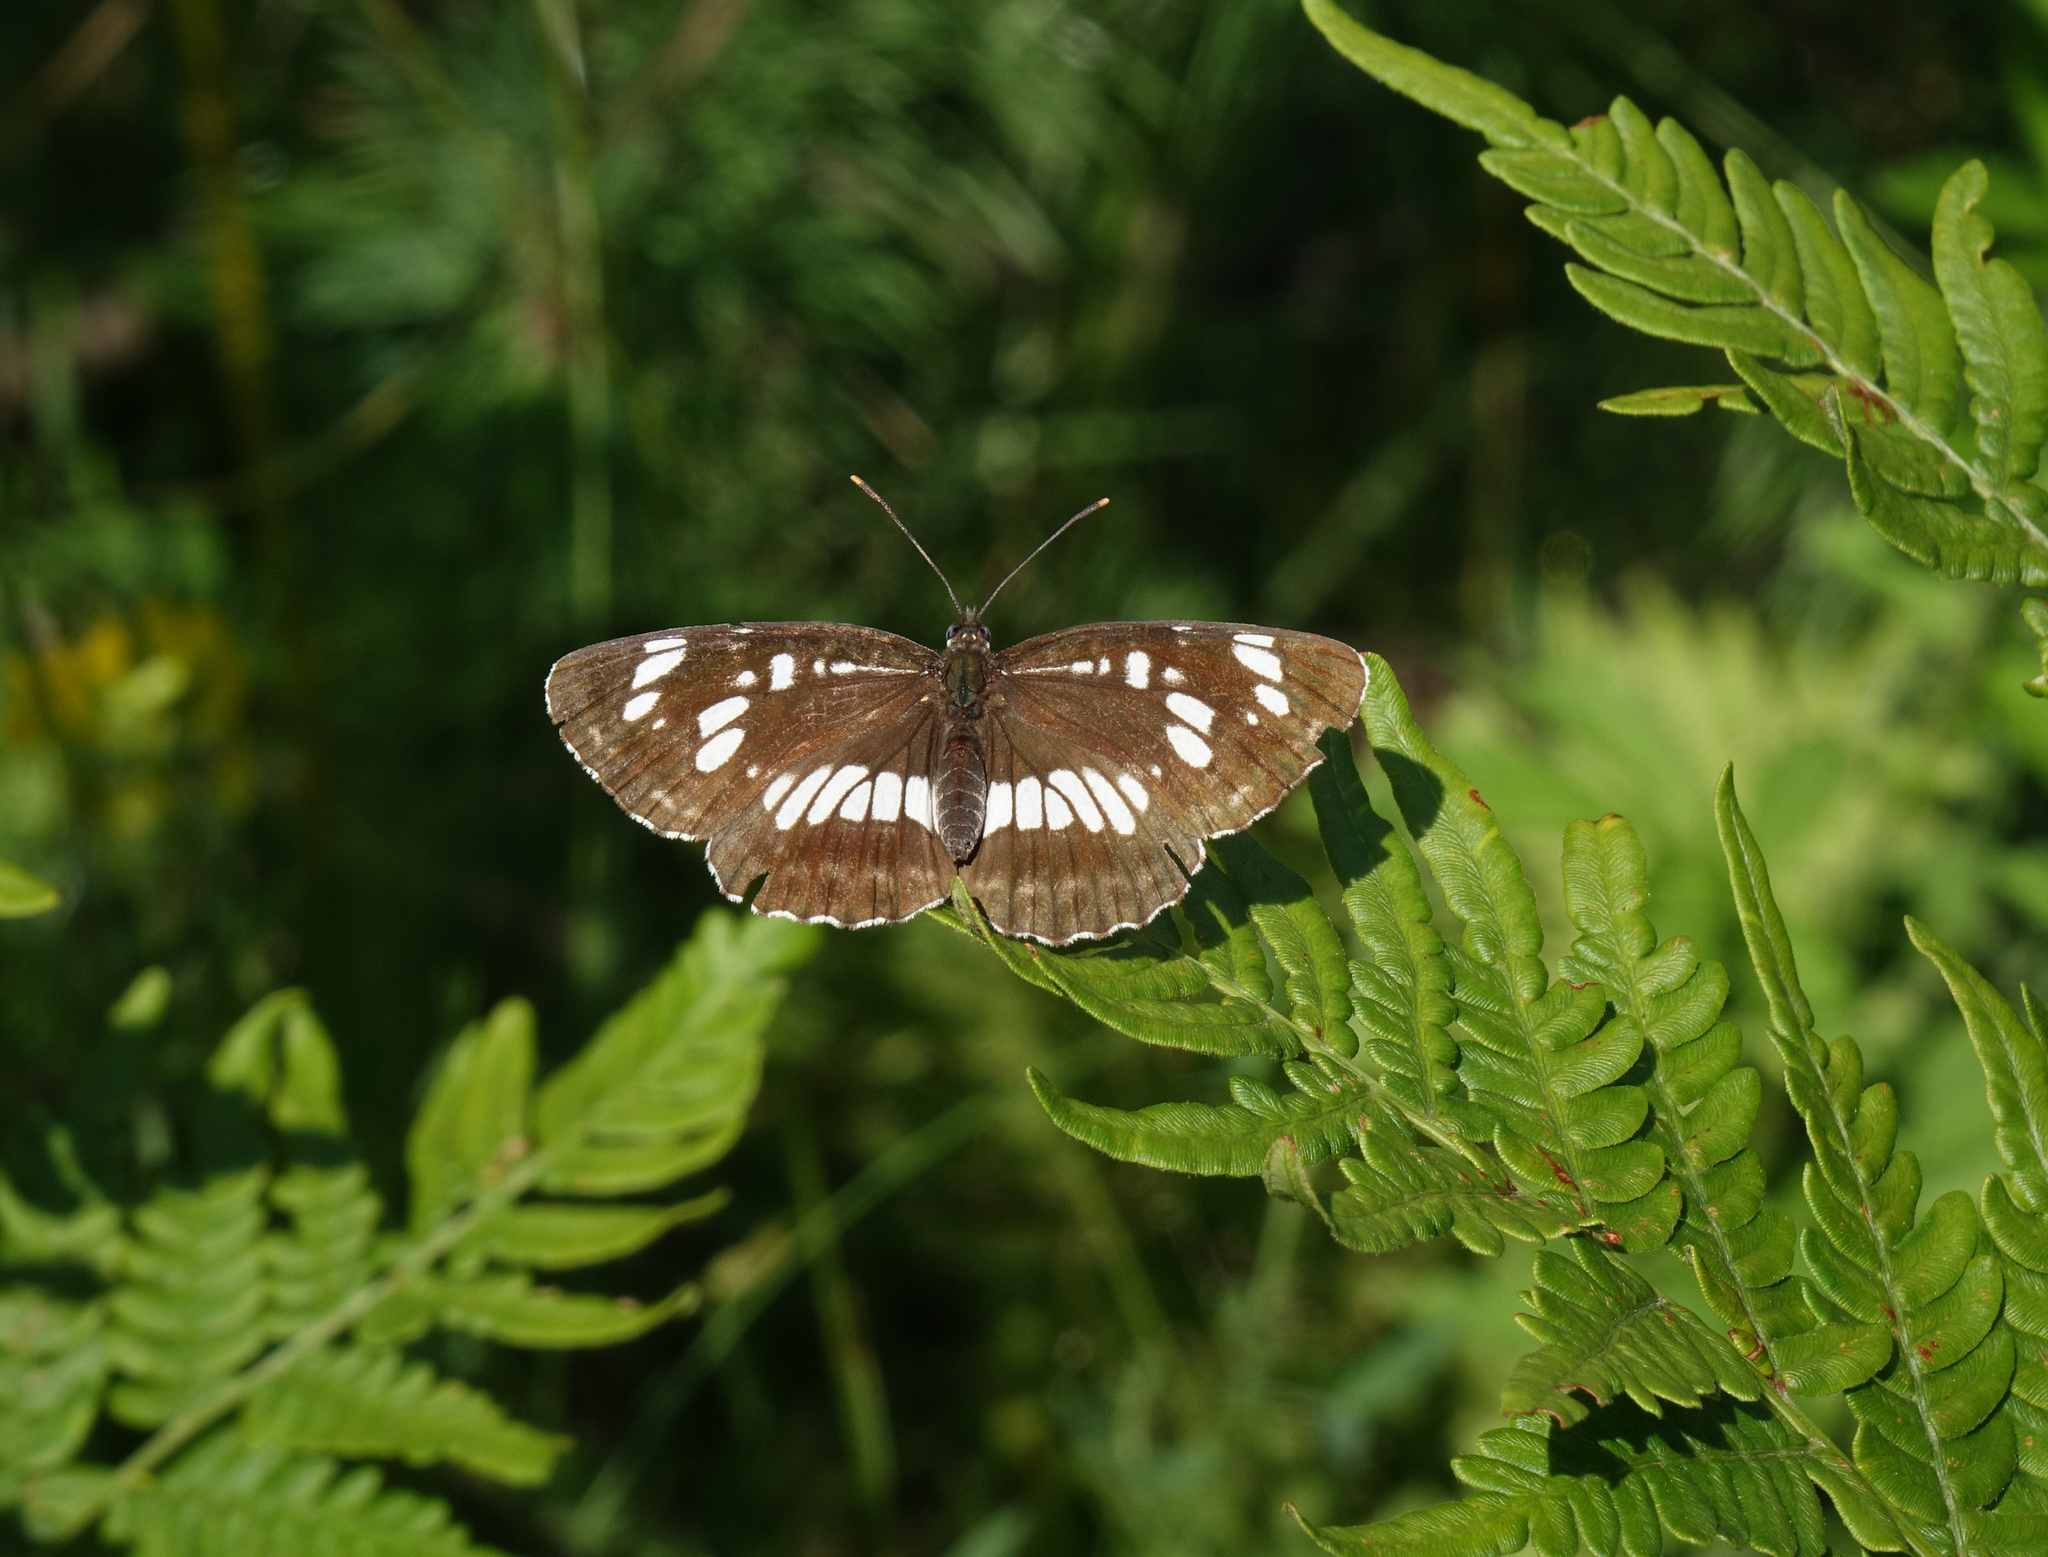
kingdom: Plantae
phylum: Tracheophyta
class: Polypodiopsida
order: Polypodiales
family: Dennstaedtiaceae
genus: Pteridium
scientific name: Pteridium aquilinum
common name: Bracken
